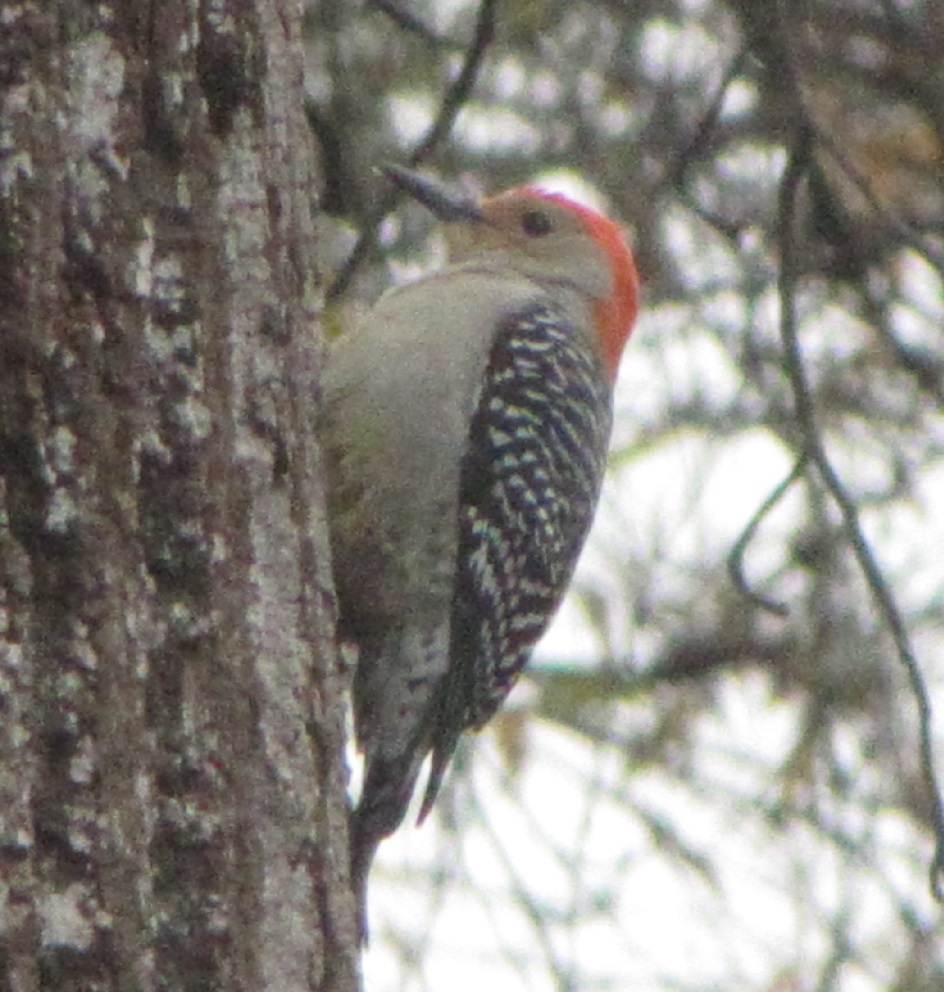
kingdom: Animalia
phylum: Chordata
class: Aves
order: Piciformes
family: Picidae
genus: Melanerpes
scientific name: Melanerpes carolinus
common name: Red-bellied woodpecker
